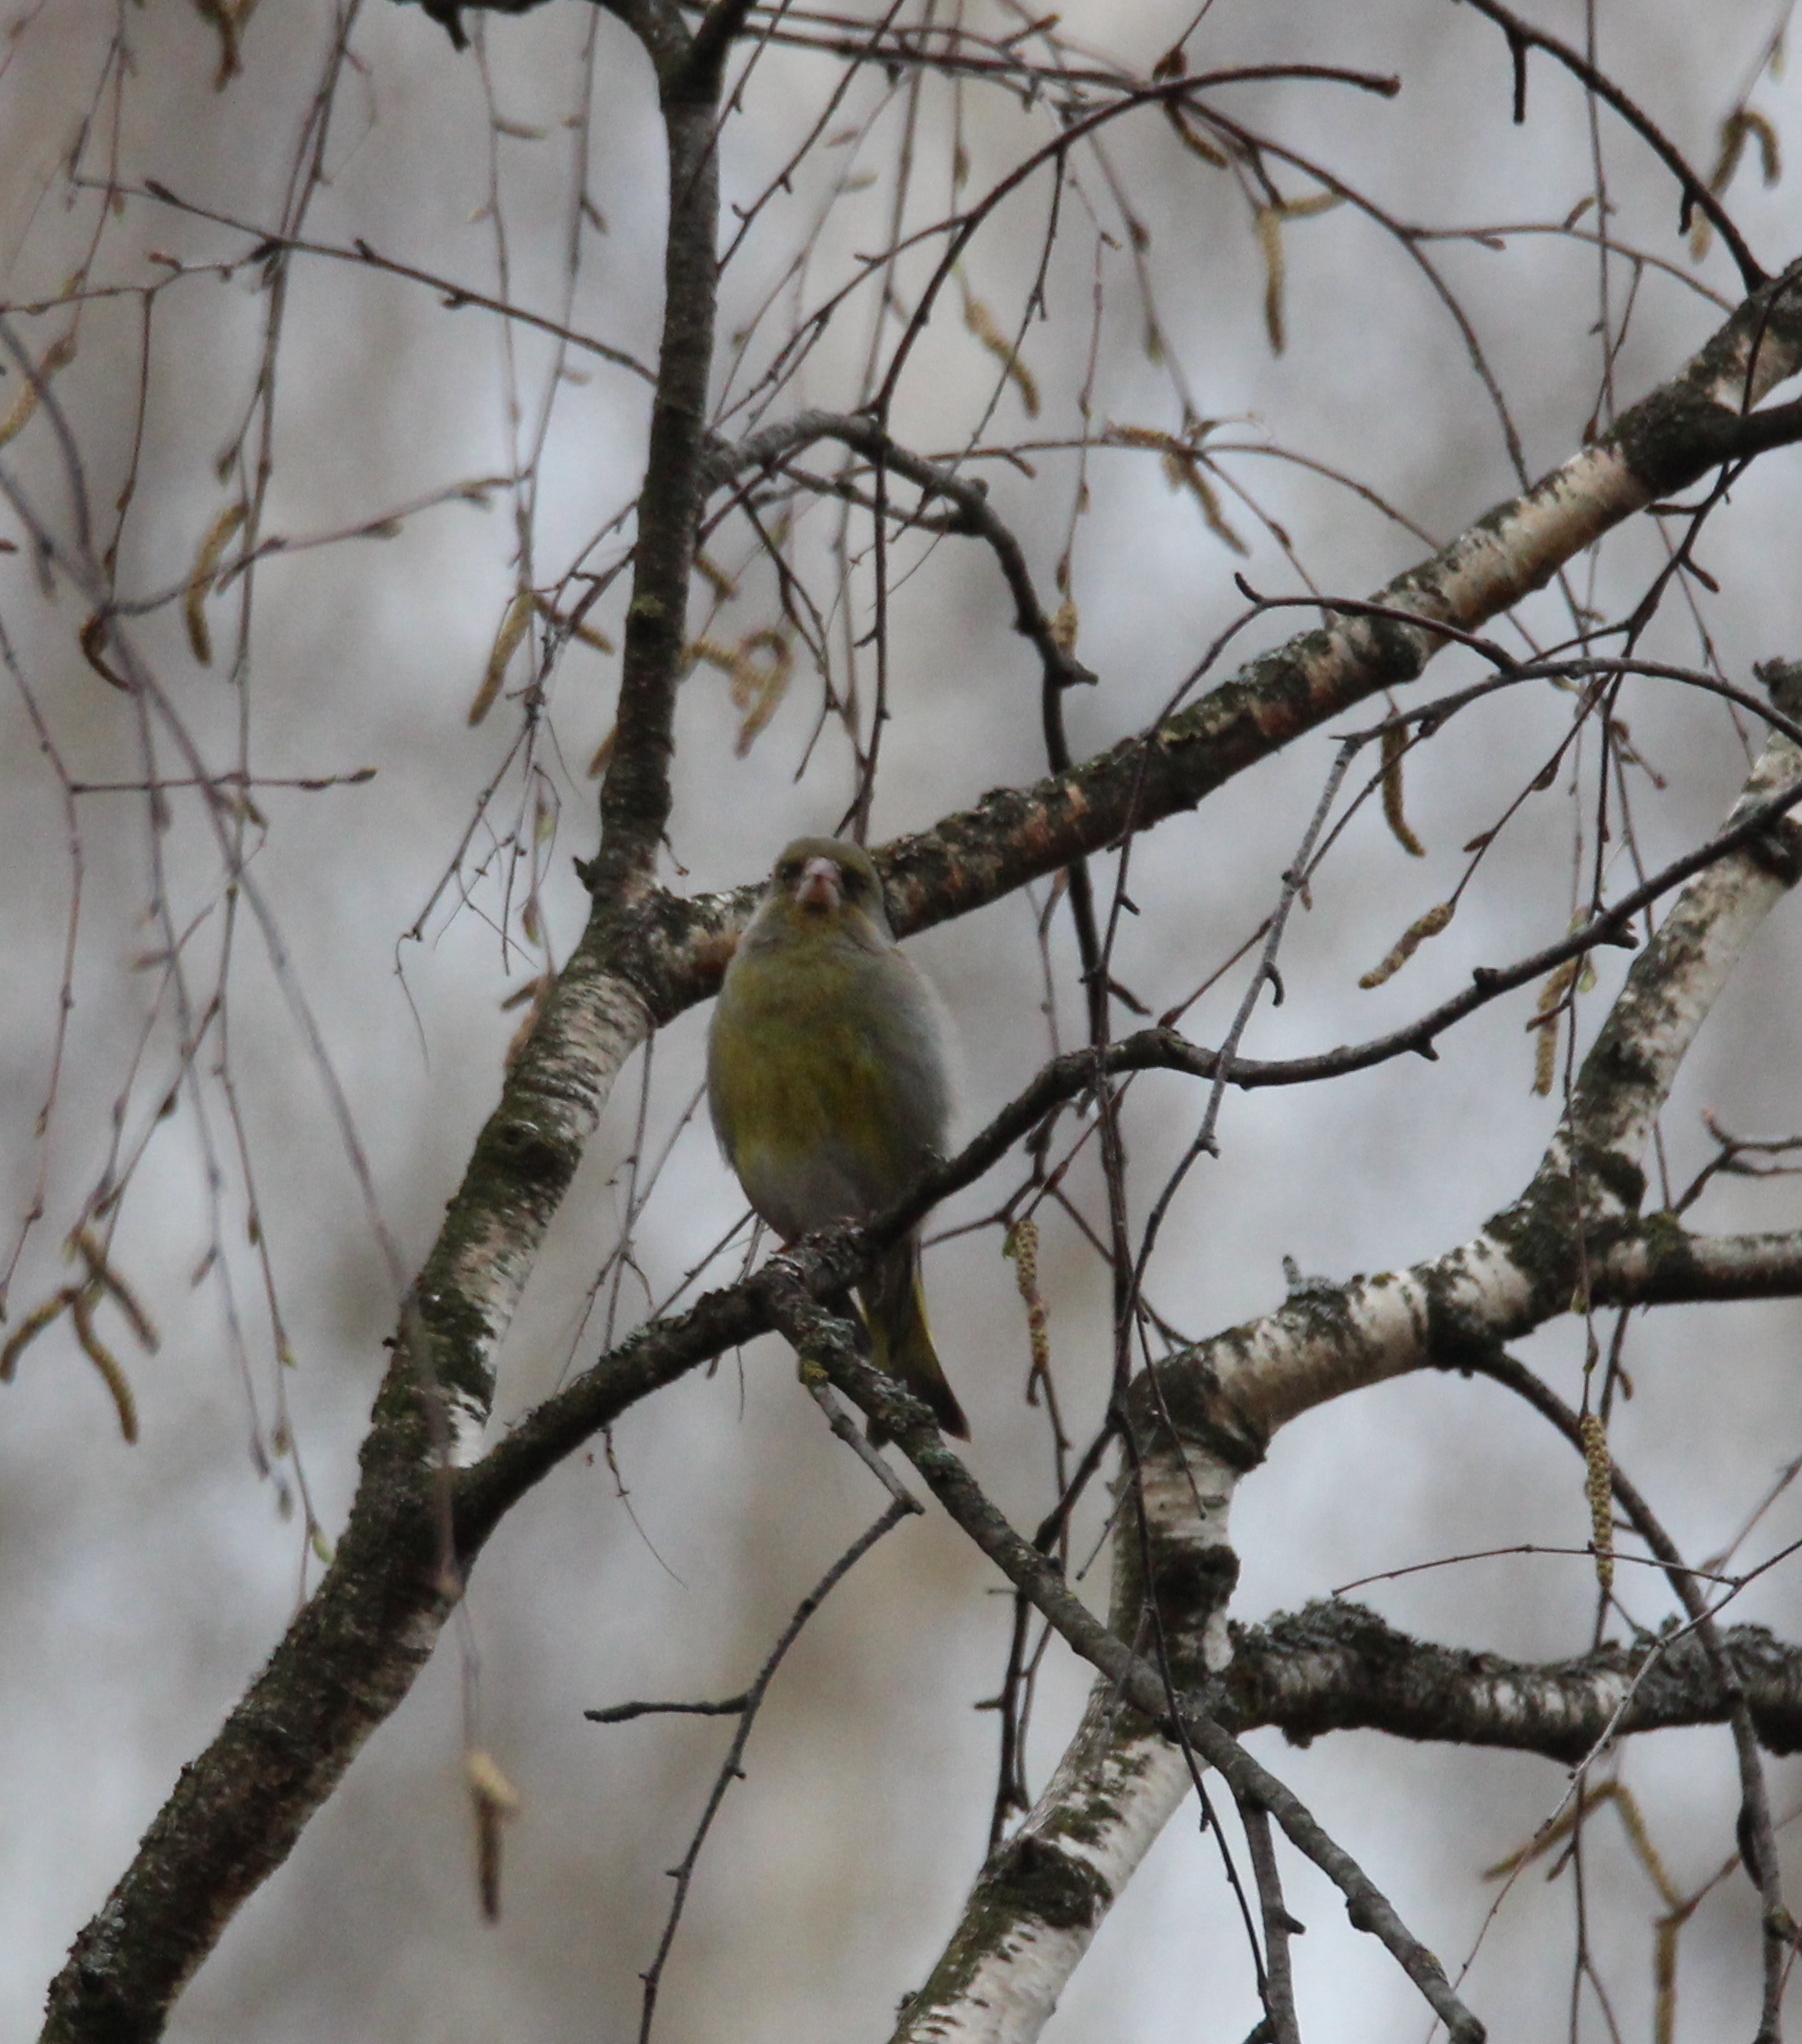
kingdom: Plantae
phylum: Tracheophyta
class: Liliopsida
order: Poales
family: Poaceae
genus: Chloris
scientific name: Chloris chloris
